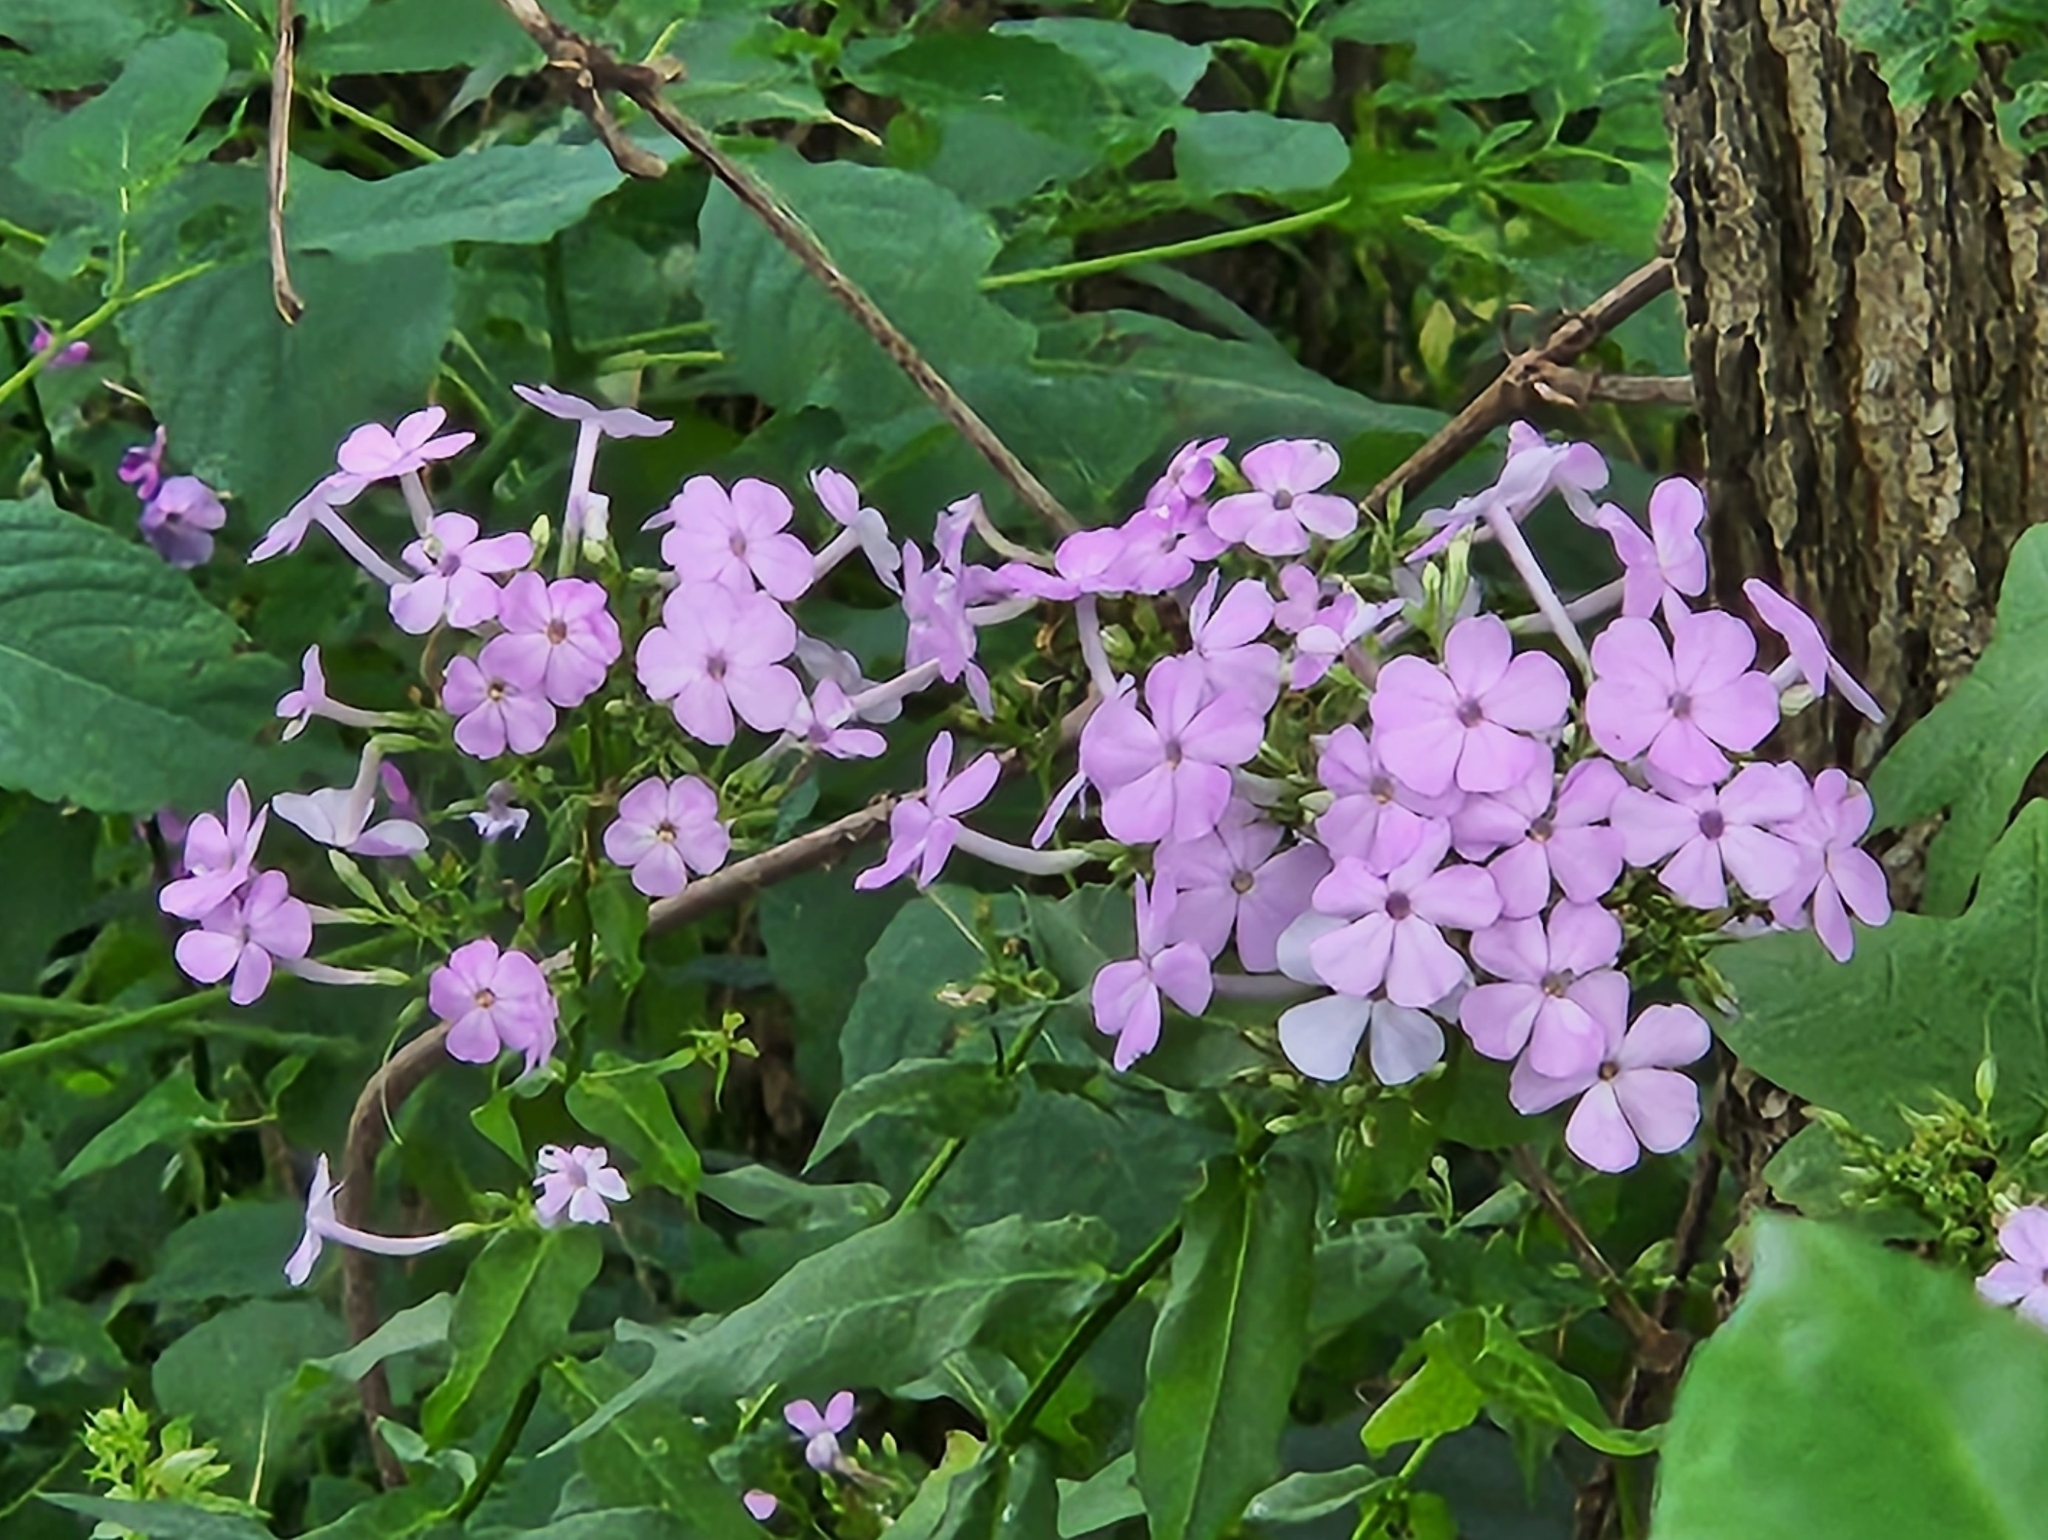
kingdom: Plantae
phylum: Tracheophyta
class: Magnoliopsida
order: Ericales
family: Polemoniaceae
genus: Phlox
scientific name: Phlox paniculata
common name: Fall phlox
